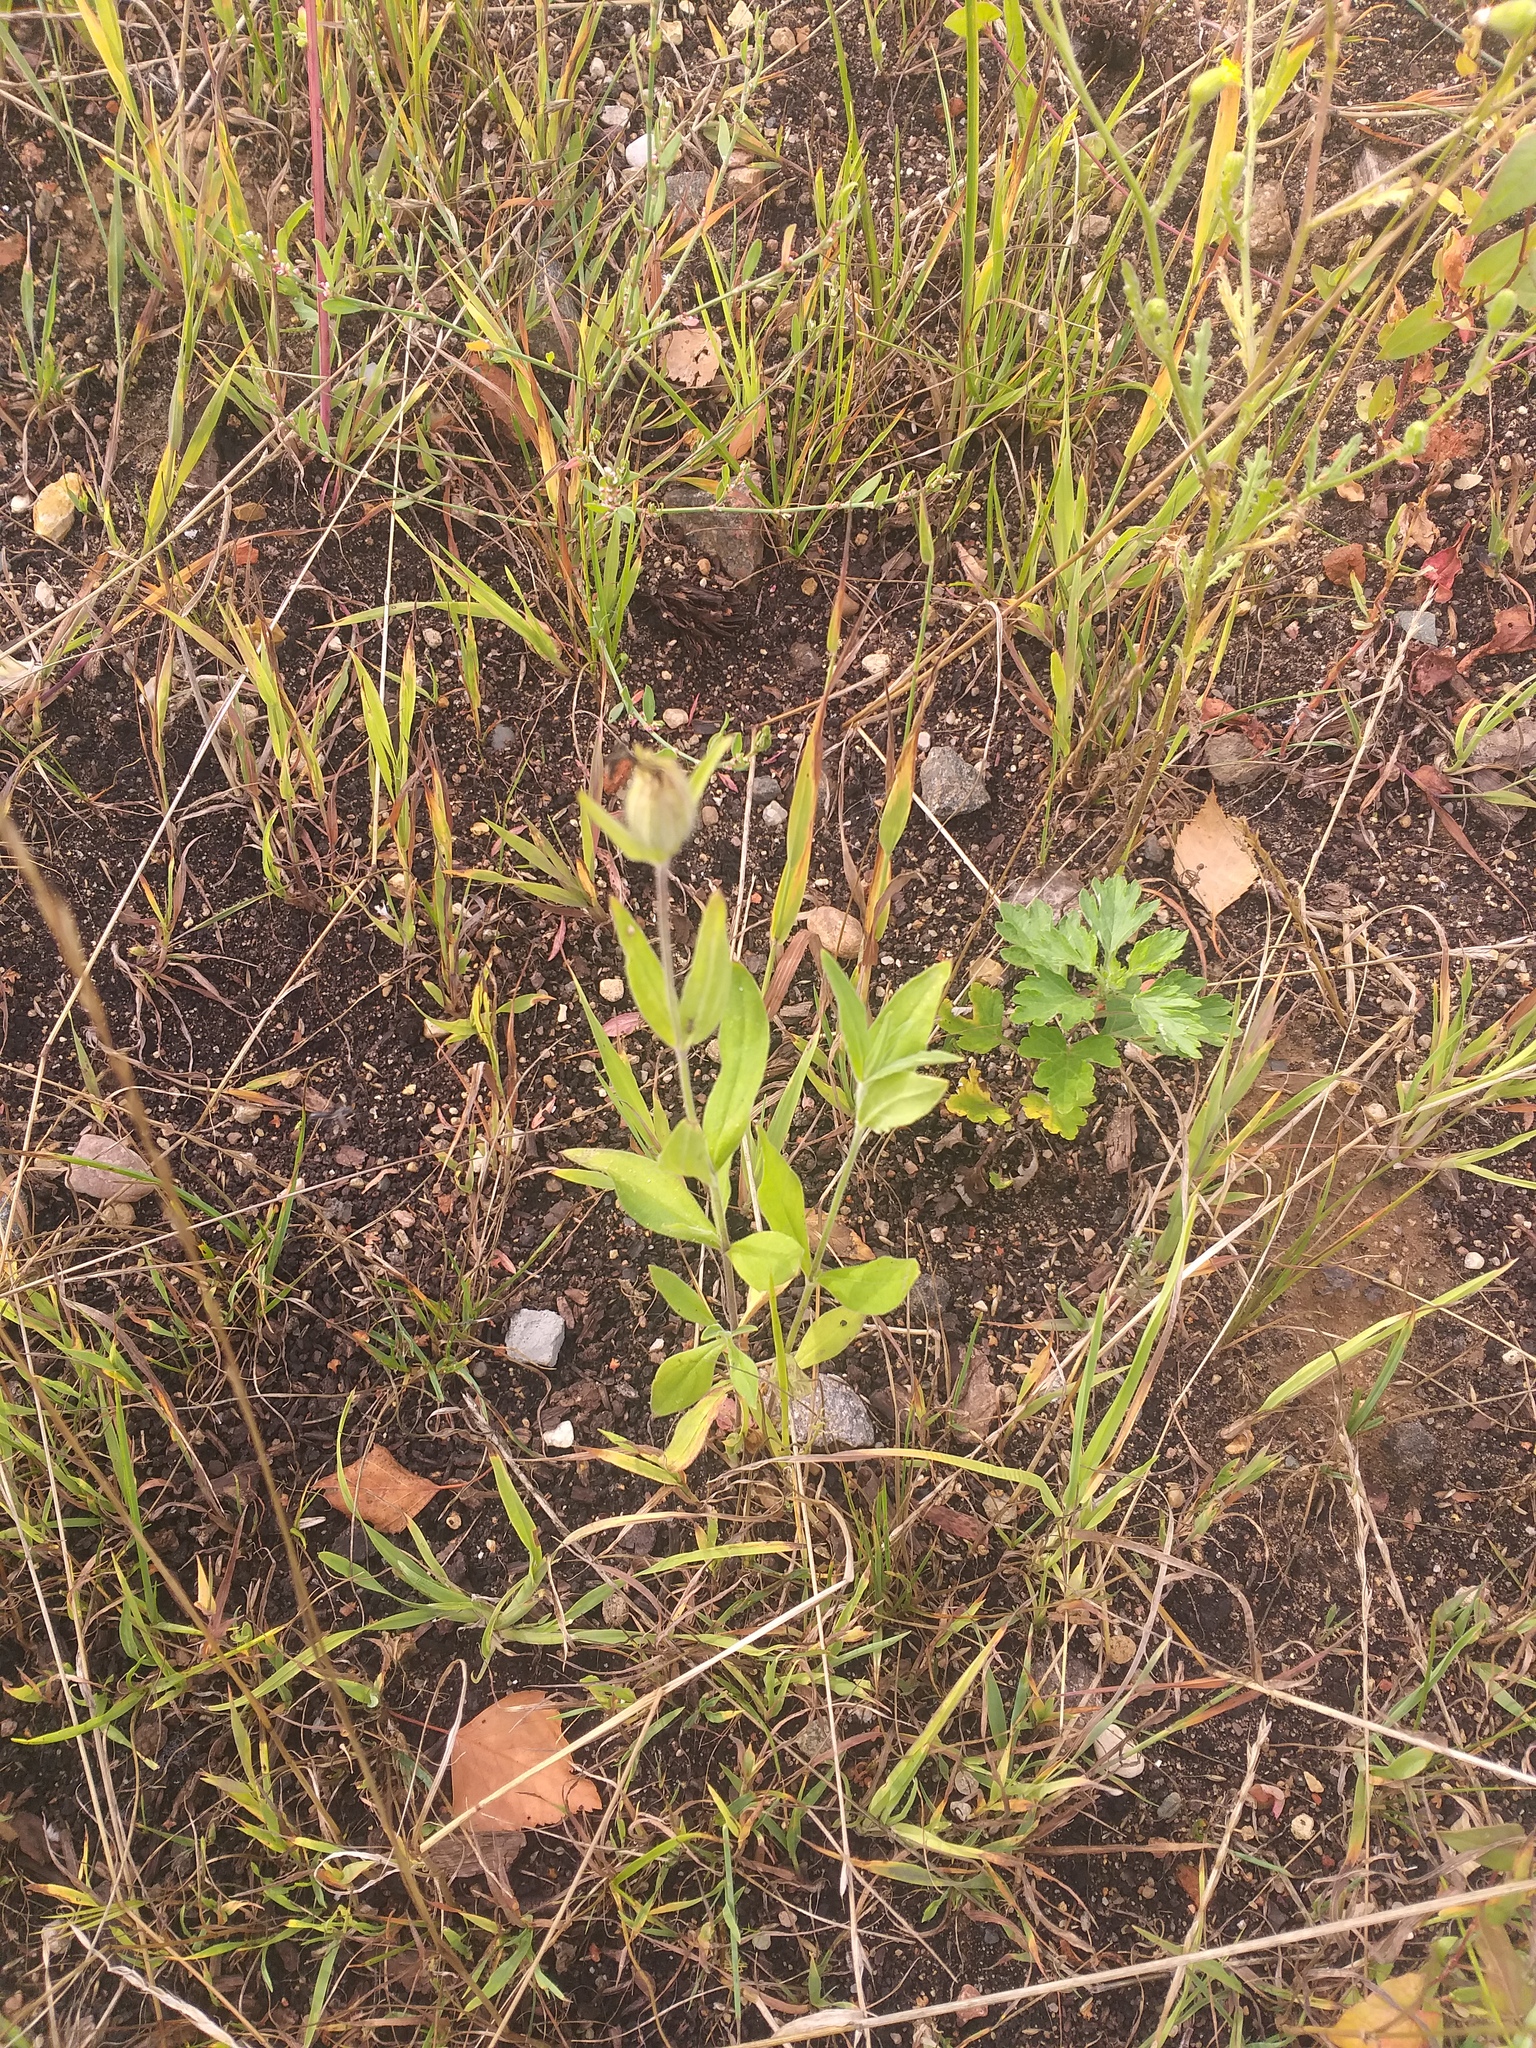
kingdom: Plantae
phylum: Tracheophyta
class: Magnoliopsida
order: Caryophyllales
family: Caryophyllaceae
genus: Silene
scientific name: Silene latifolia
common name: White campion
